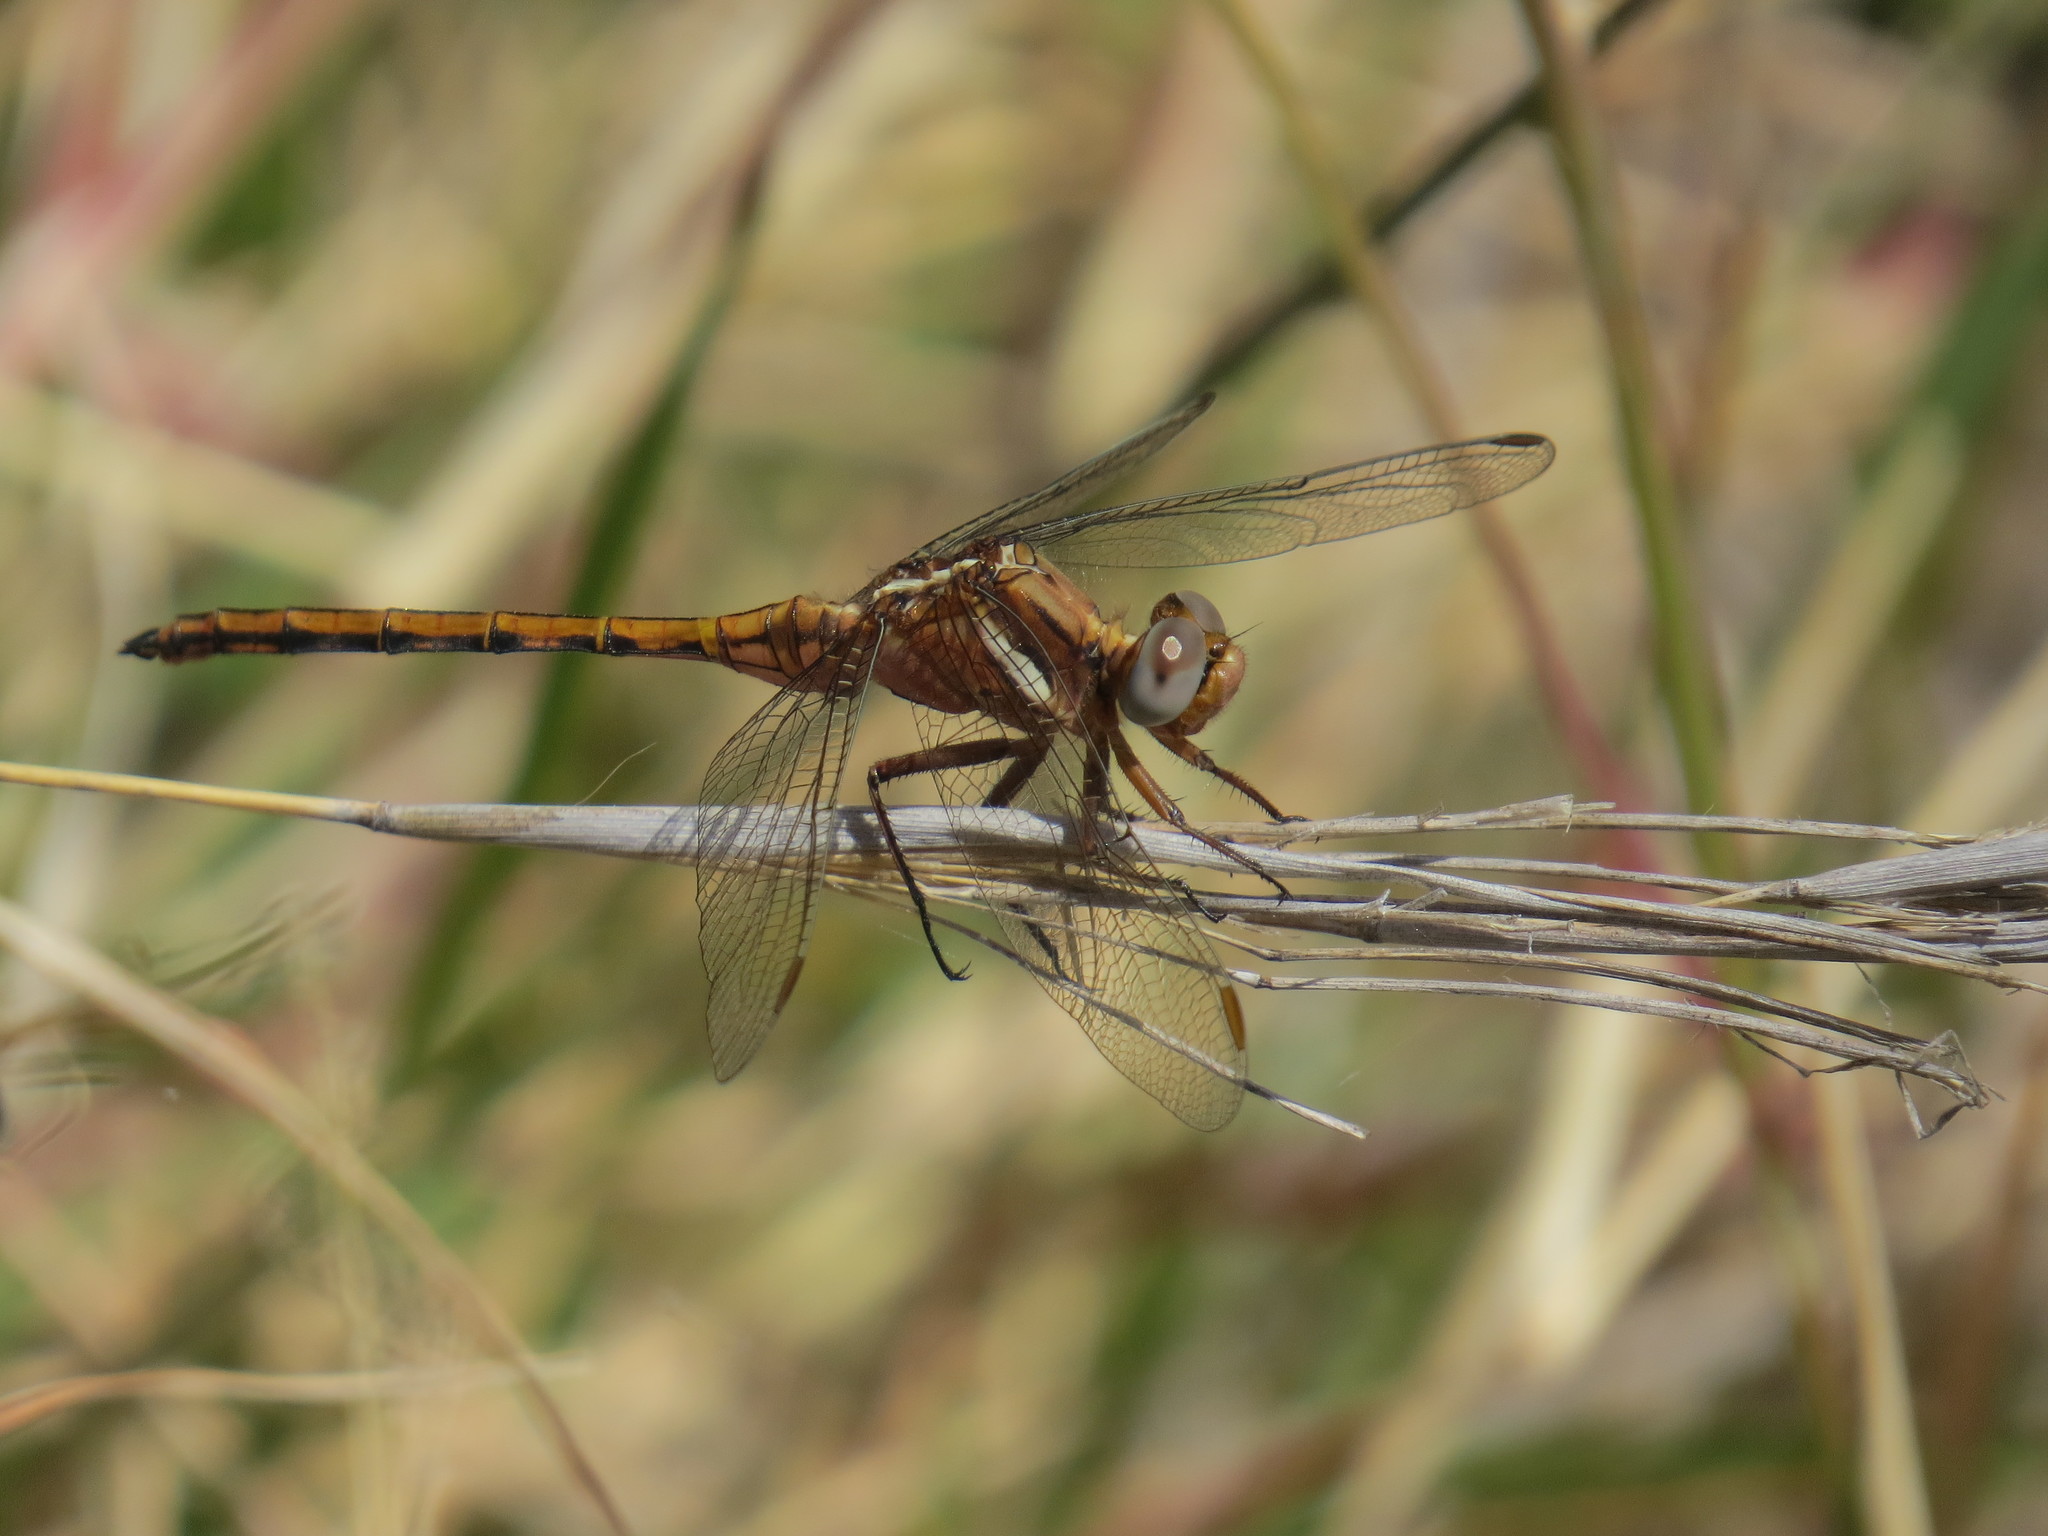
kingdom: Animalia
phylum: Arthropoda
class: Insecta
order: Odonata
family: Libellulidae
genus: Orthetrum
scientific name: Orthetrum chrysostigma
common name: Epaulet skimmer
